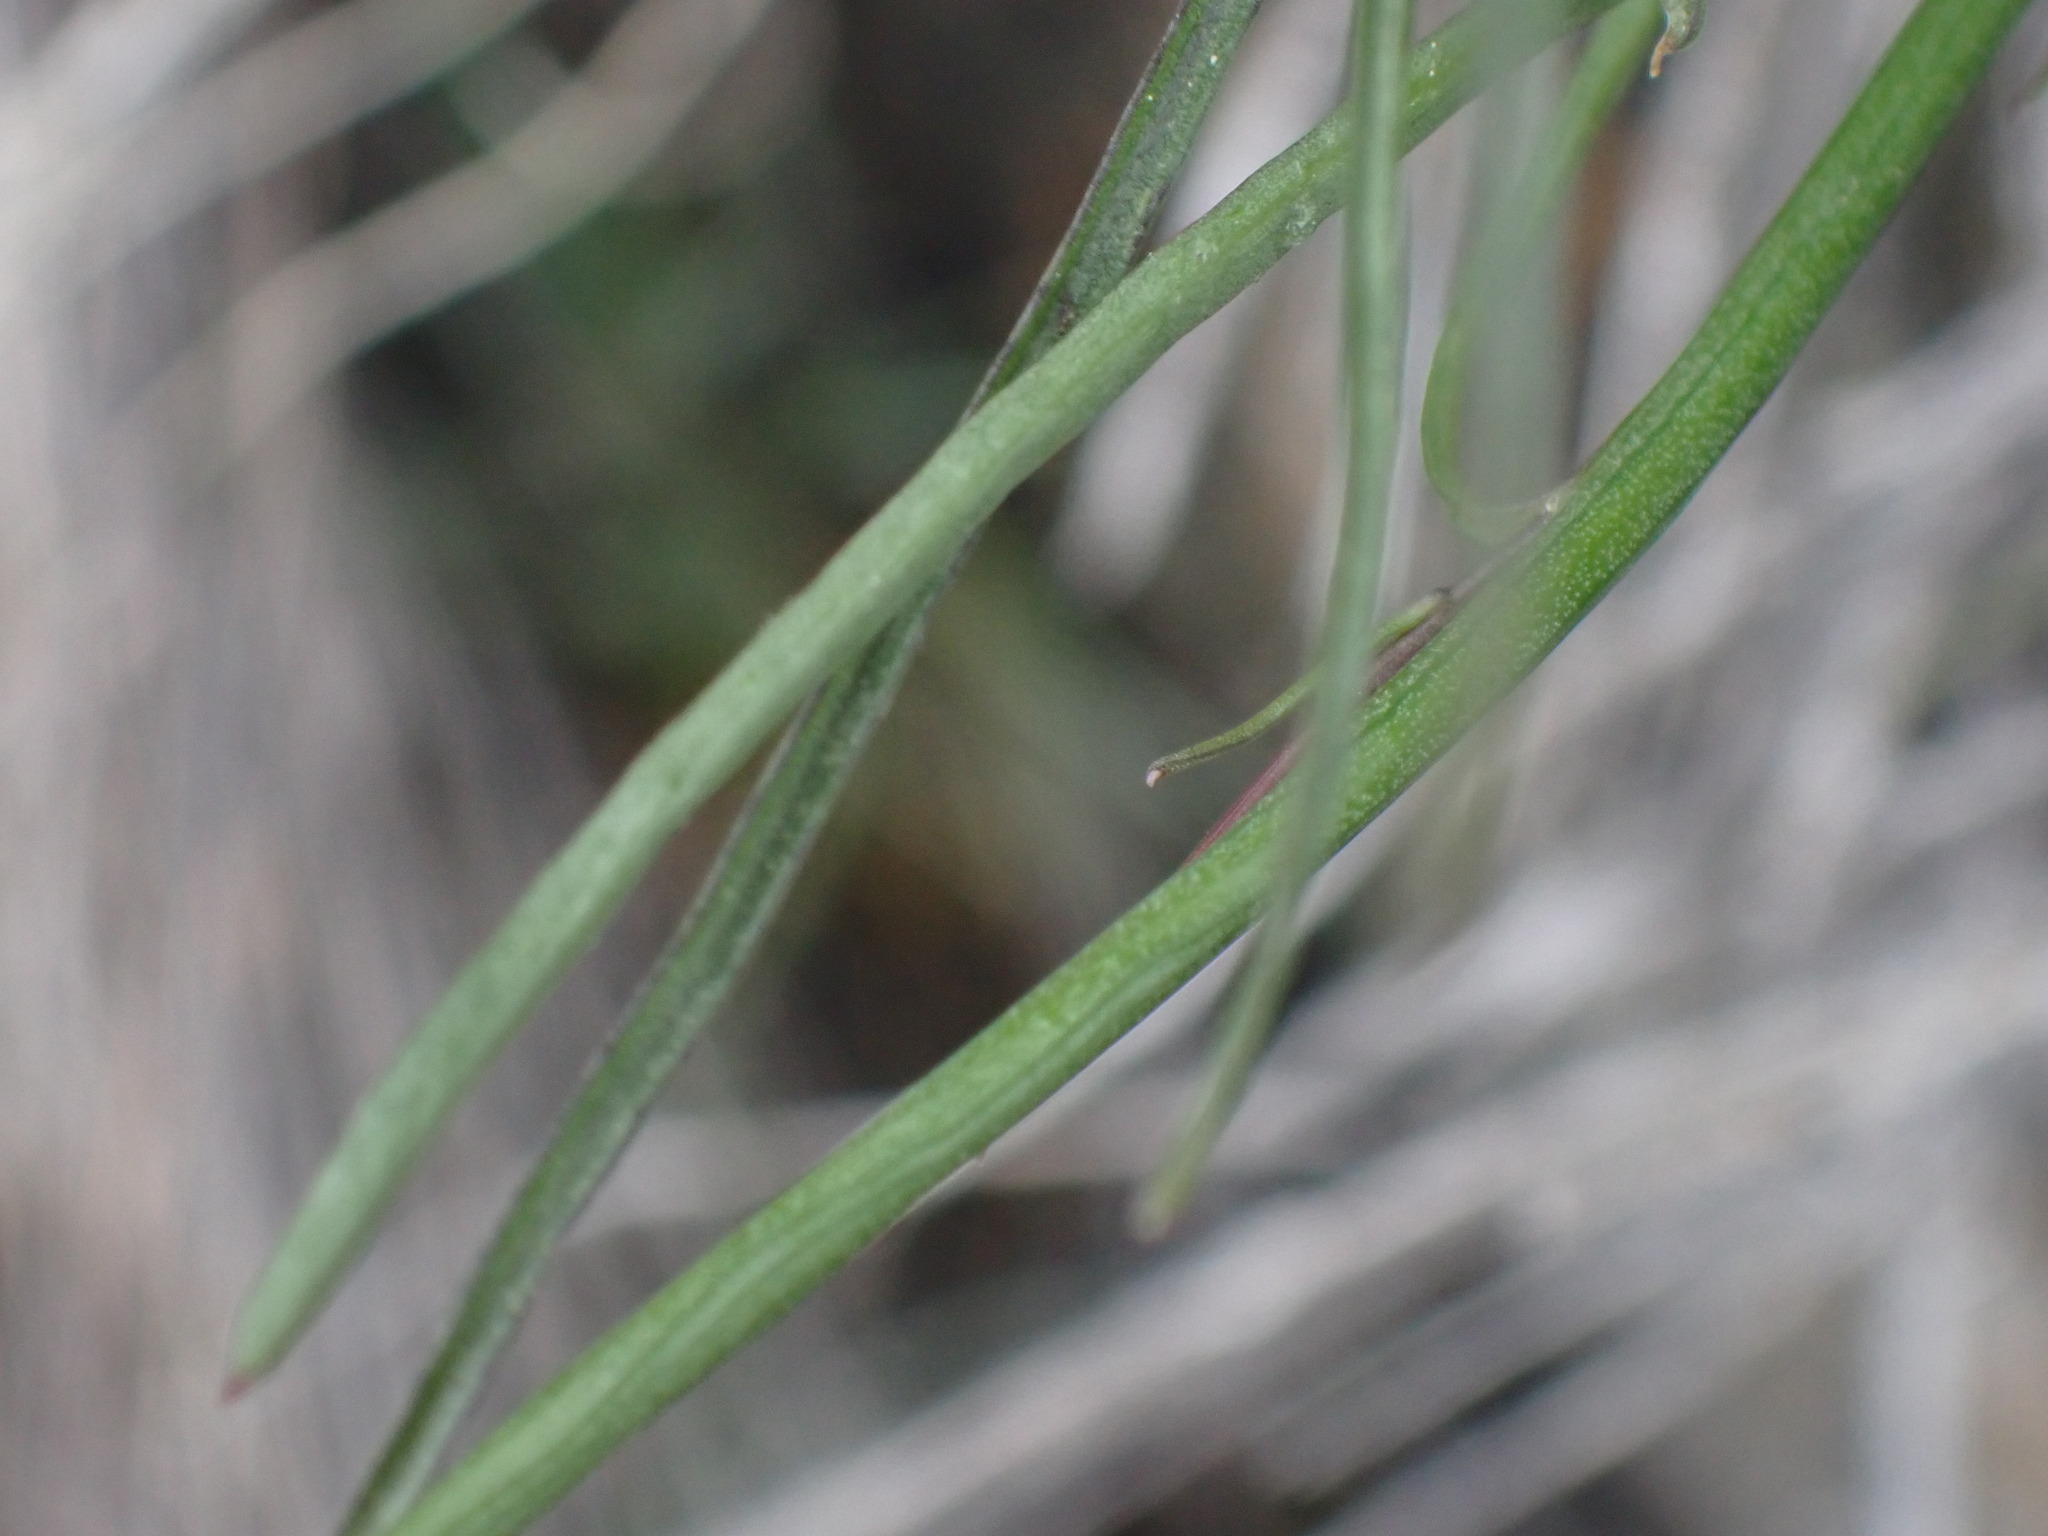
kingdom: Plantae
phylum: Tracheophyta
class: Magnoliopsida
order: Asterales
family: Campanulaceae
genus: Campanula
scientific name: Campanula alaskana
